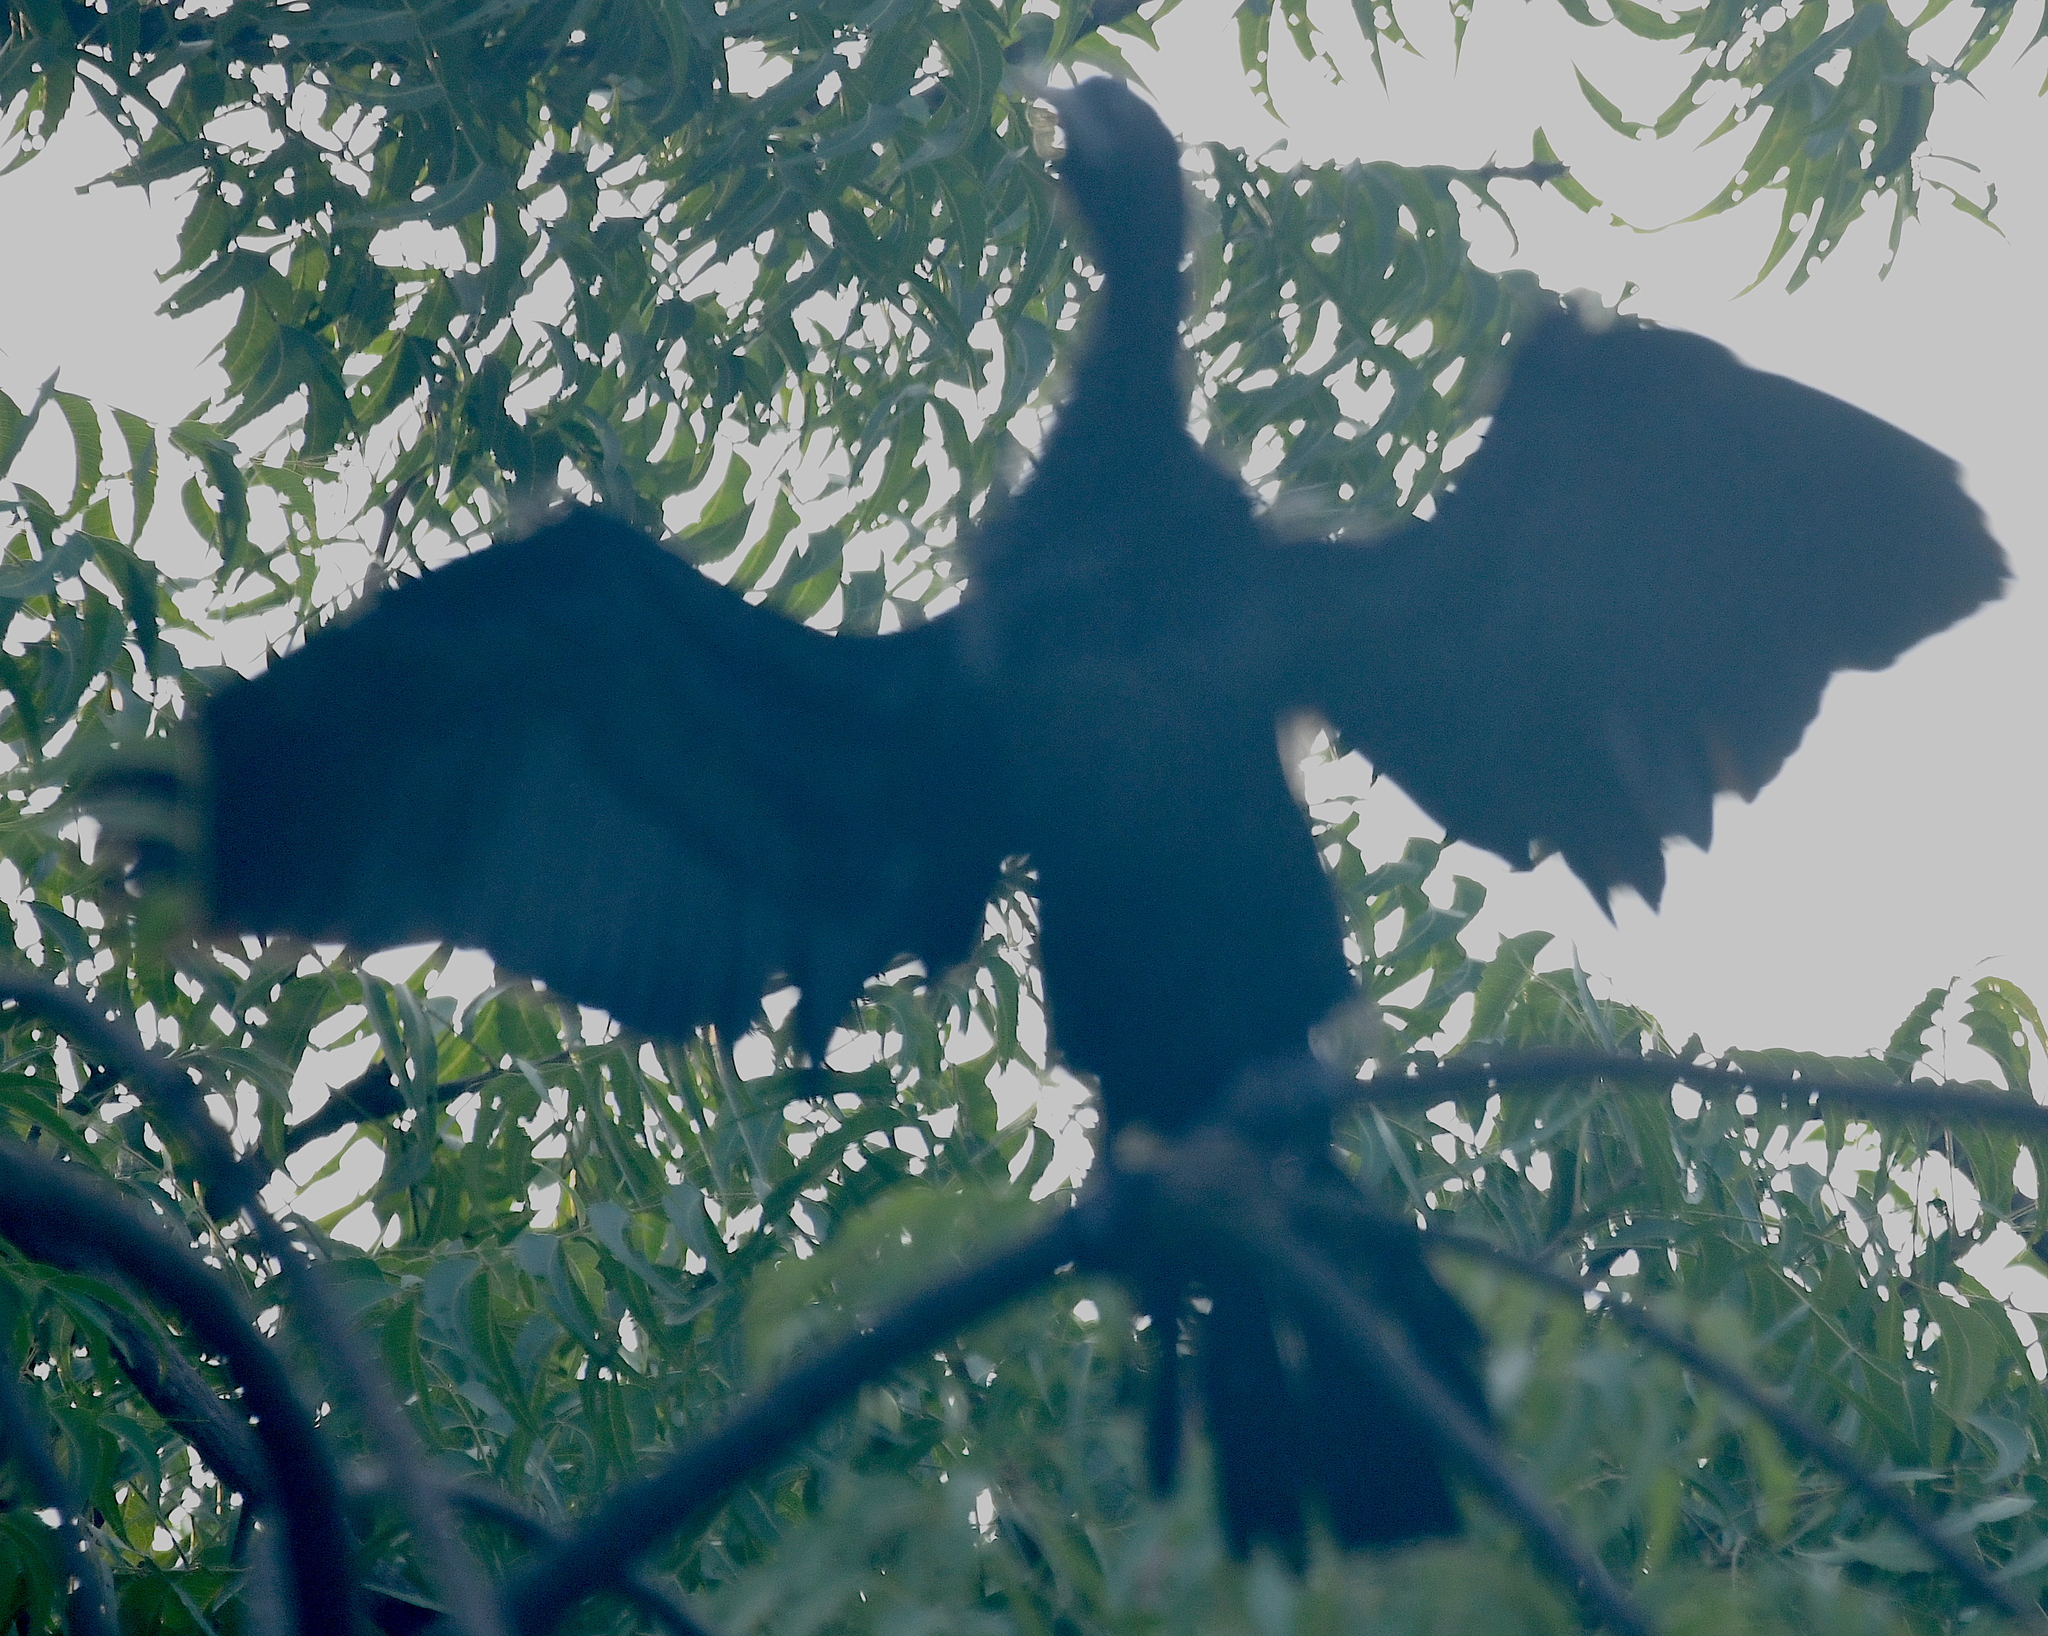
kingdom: Animalia
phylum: Chordata
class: Aves
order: Suliformes
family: Phalacrocoracidae
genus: Microcarbo
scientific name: Microcarbo niger
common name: Little cormorant
